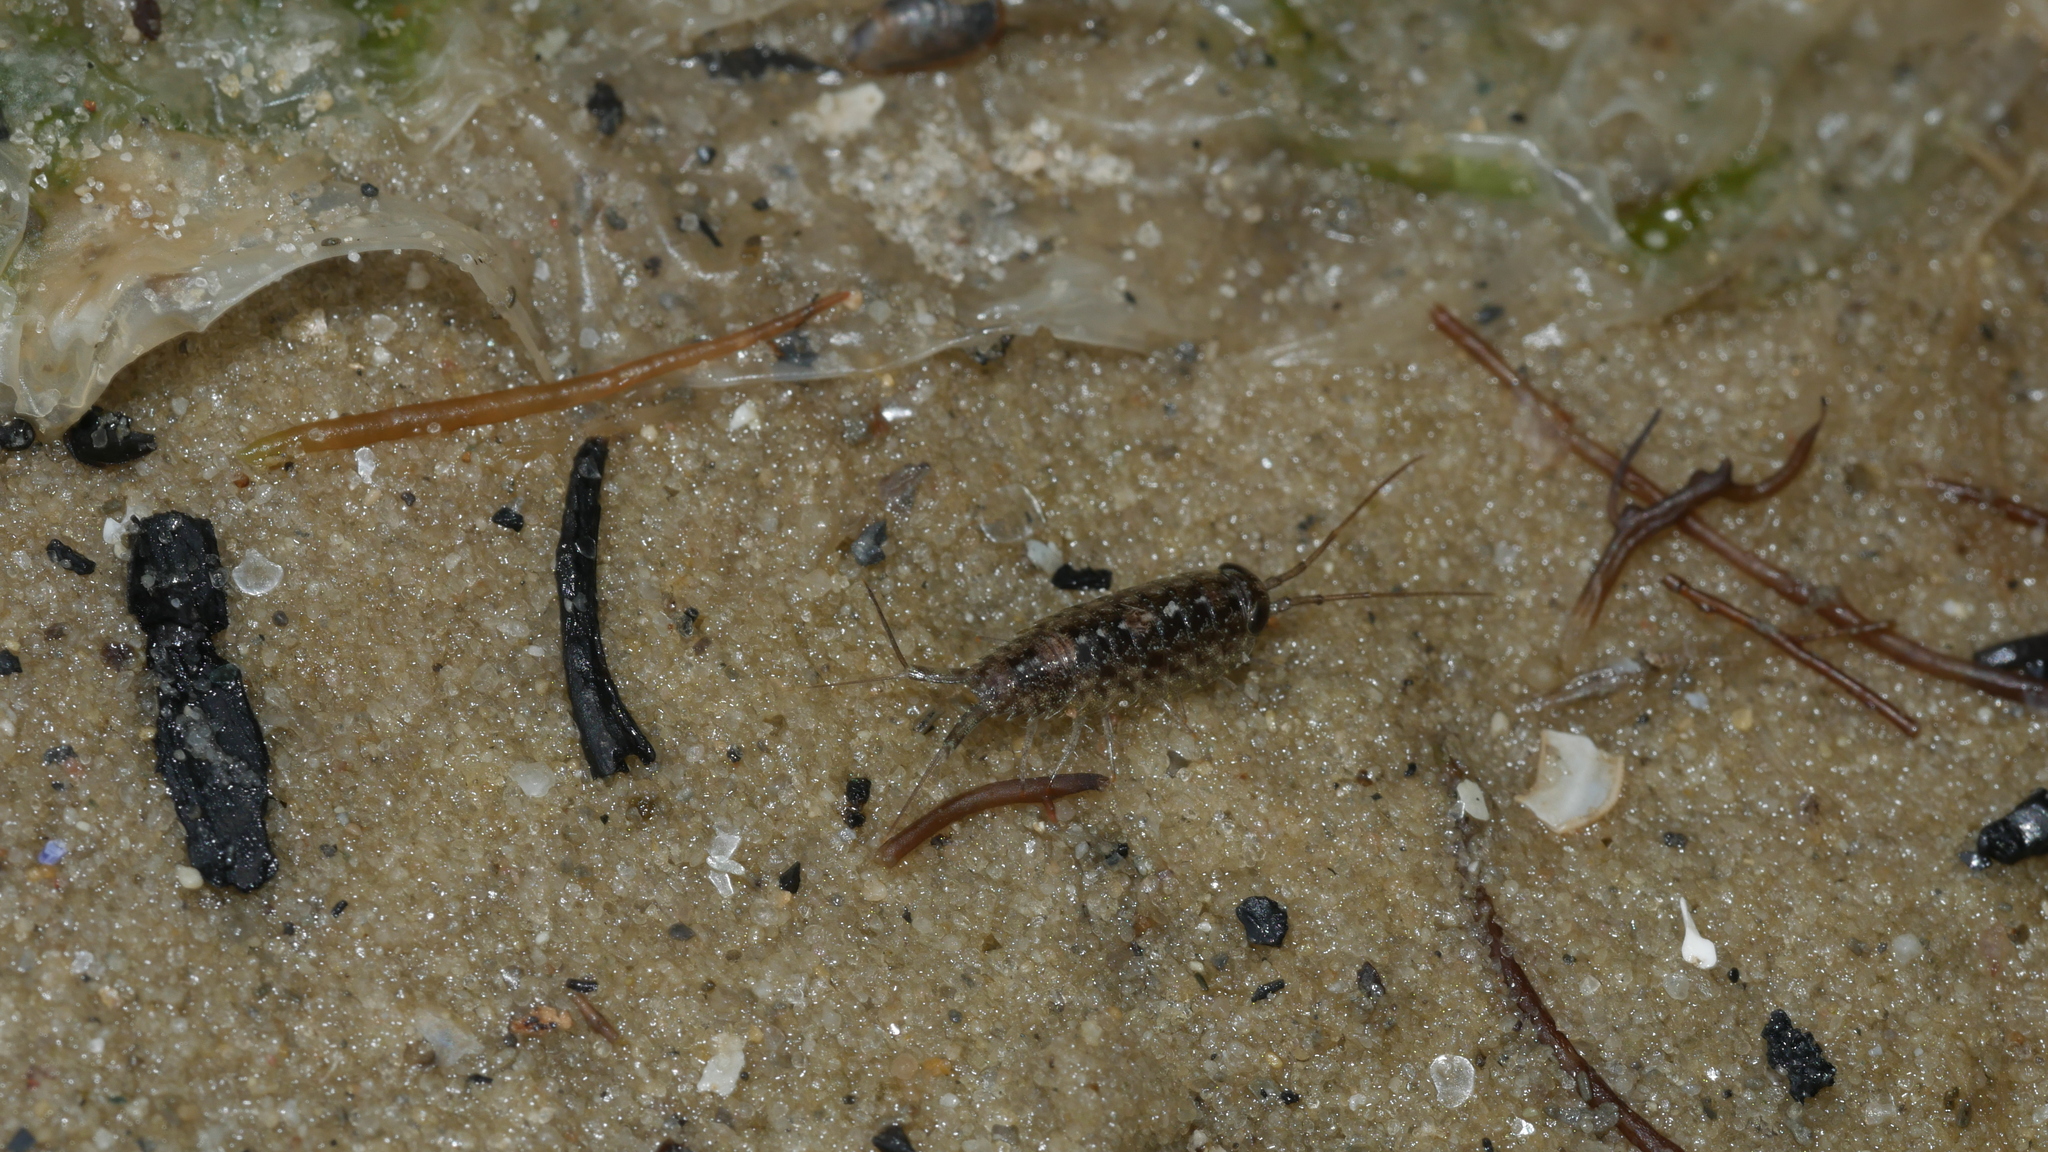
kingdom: Animalia
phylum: Arthropoda
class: Malacostraca
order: Isopoda
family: Ligiidae
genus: Ligia
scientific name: Ligia exotica
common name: Wharf roach
